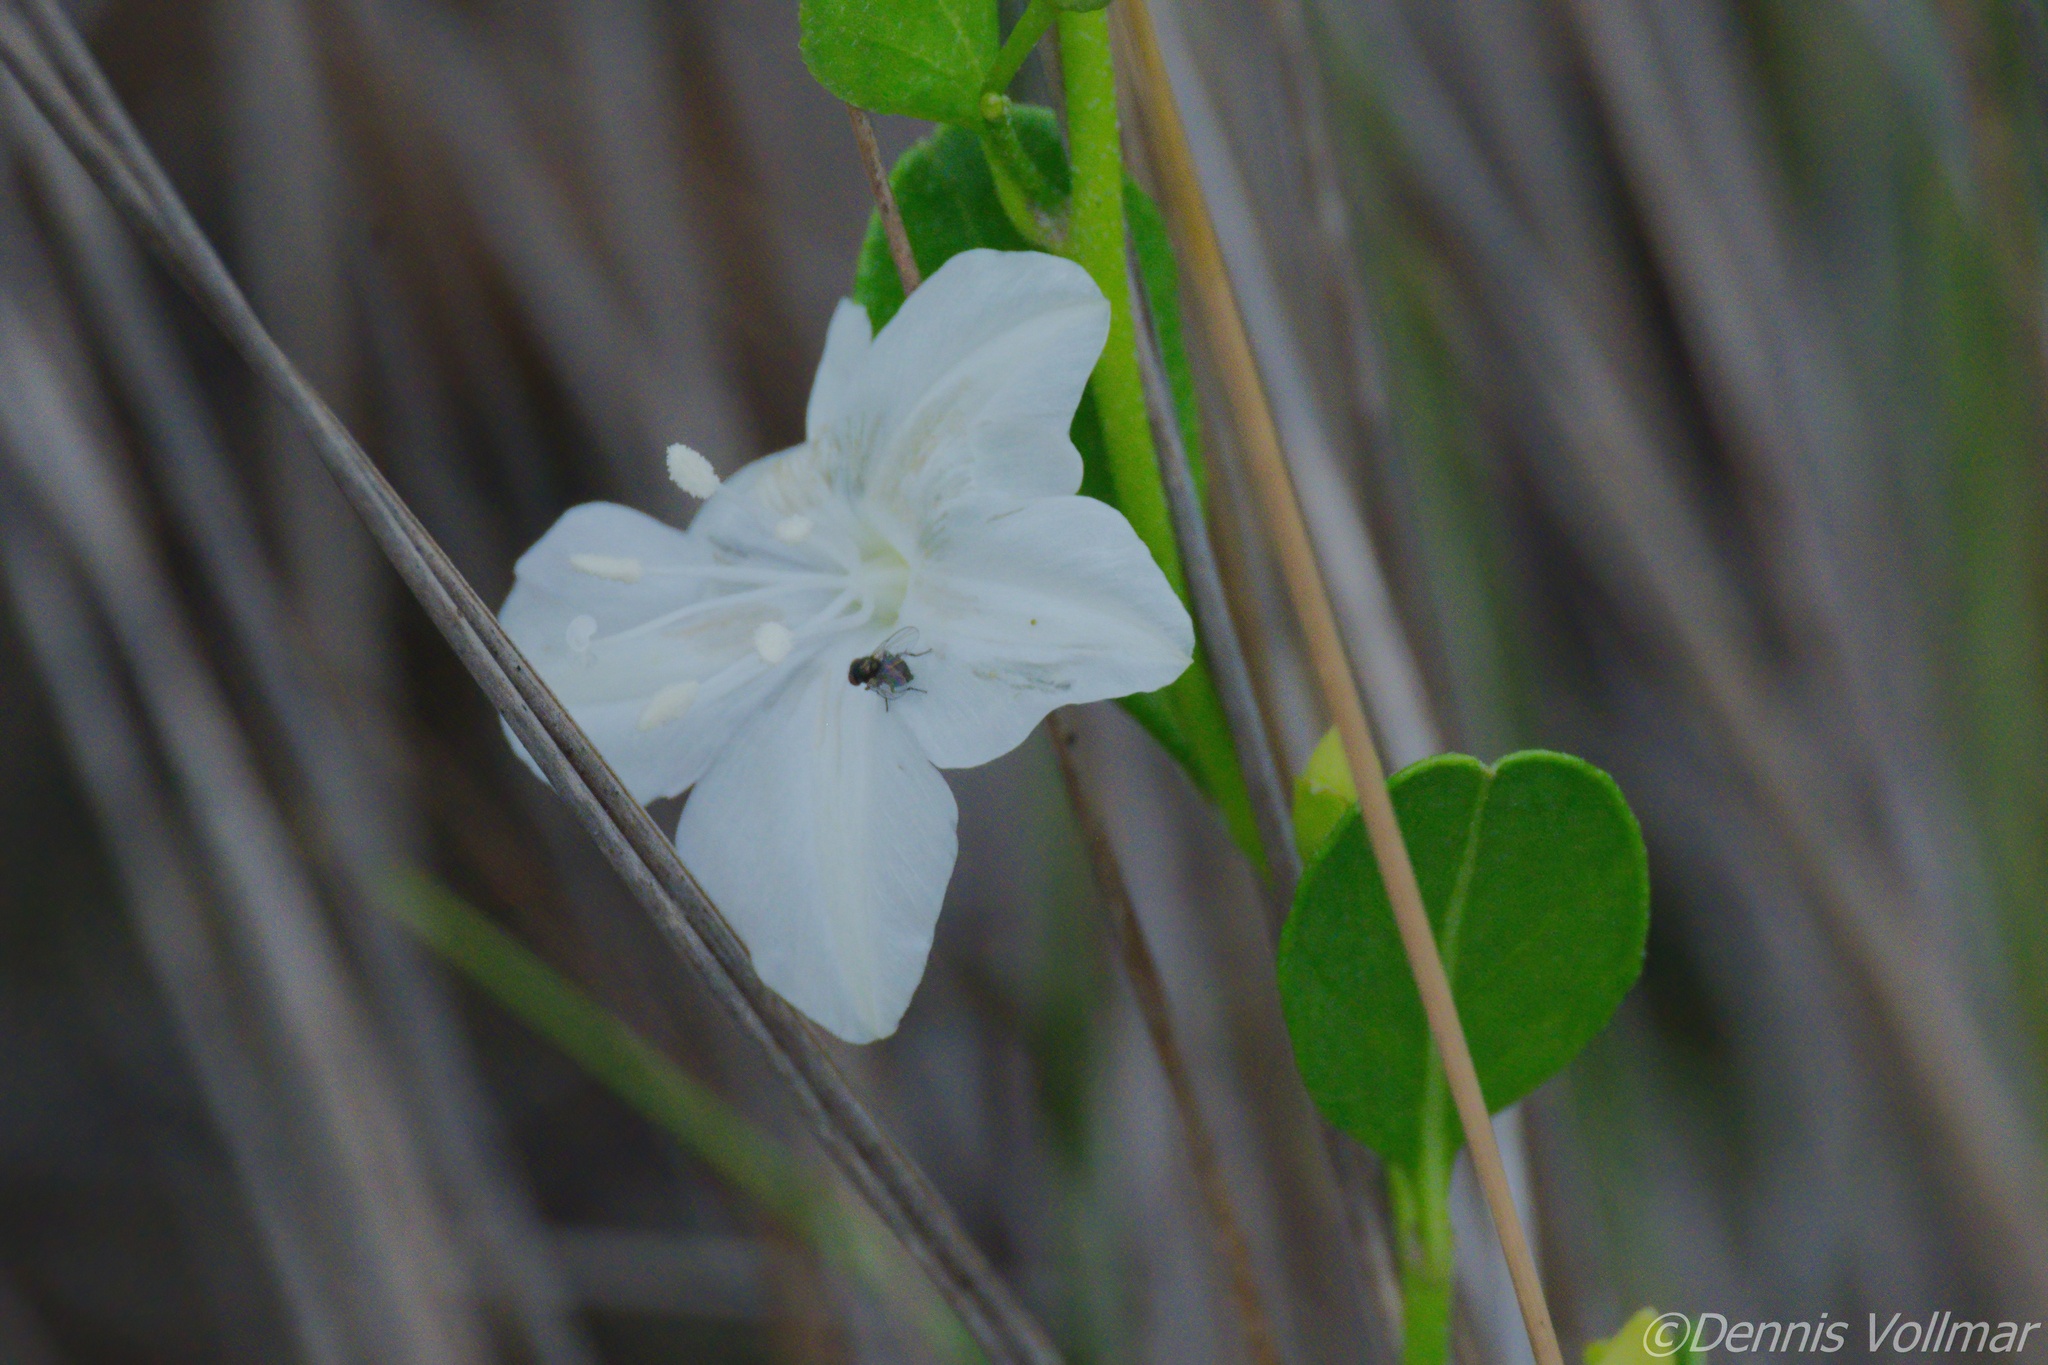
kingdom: Plantae
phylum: Tracheophyta
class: Magnoliopsida
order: Solanales
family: Convolvulaceae
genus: Jacquemontia
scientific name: Jacquemontia curtissii
